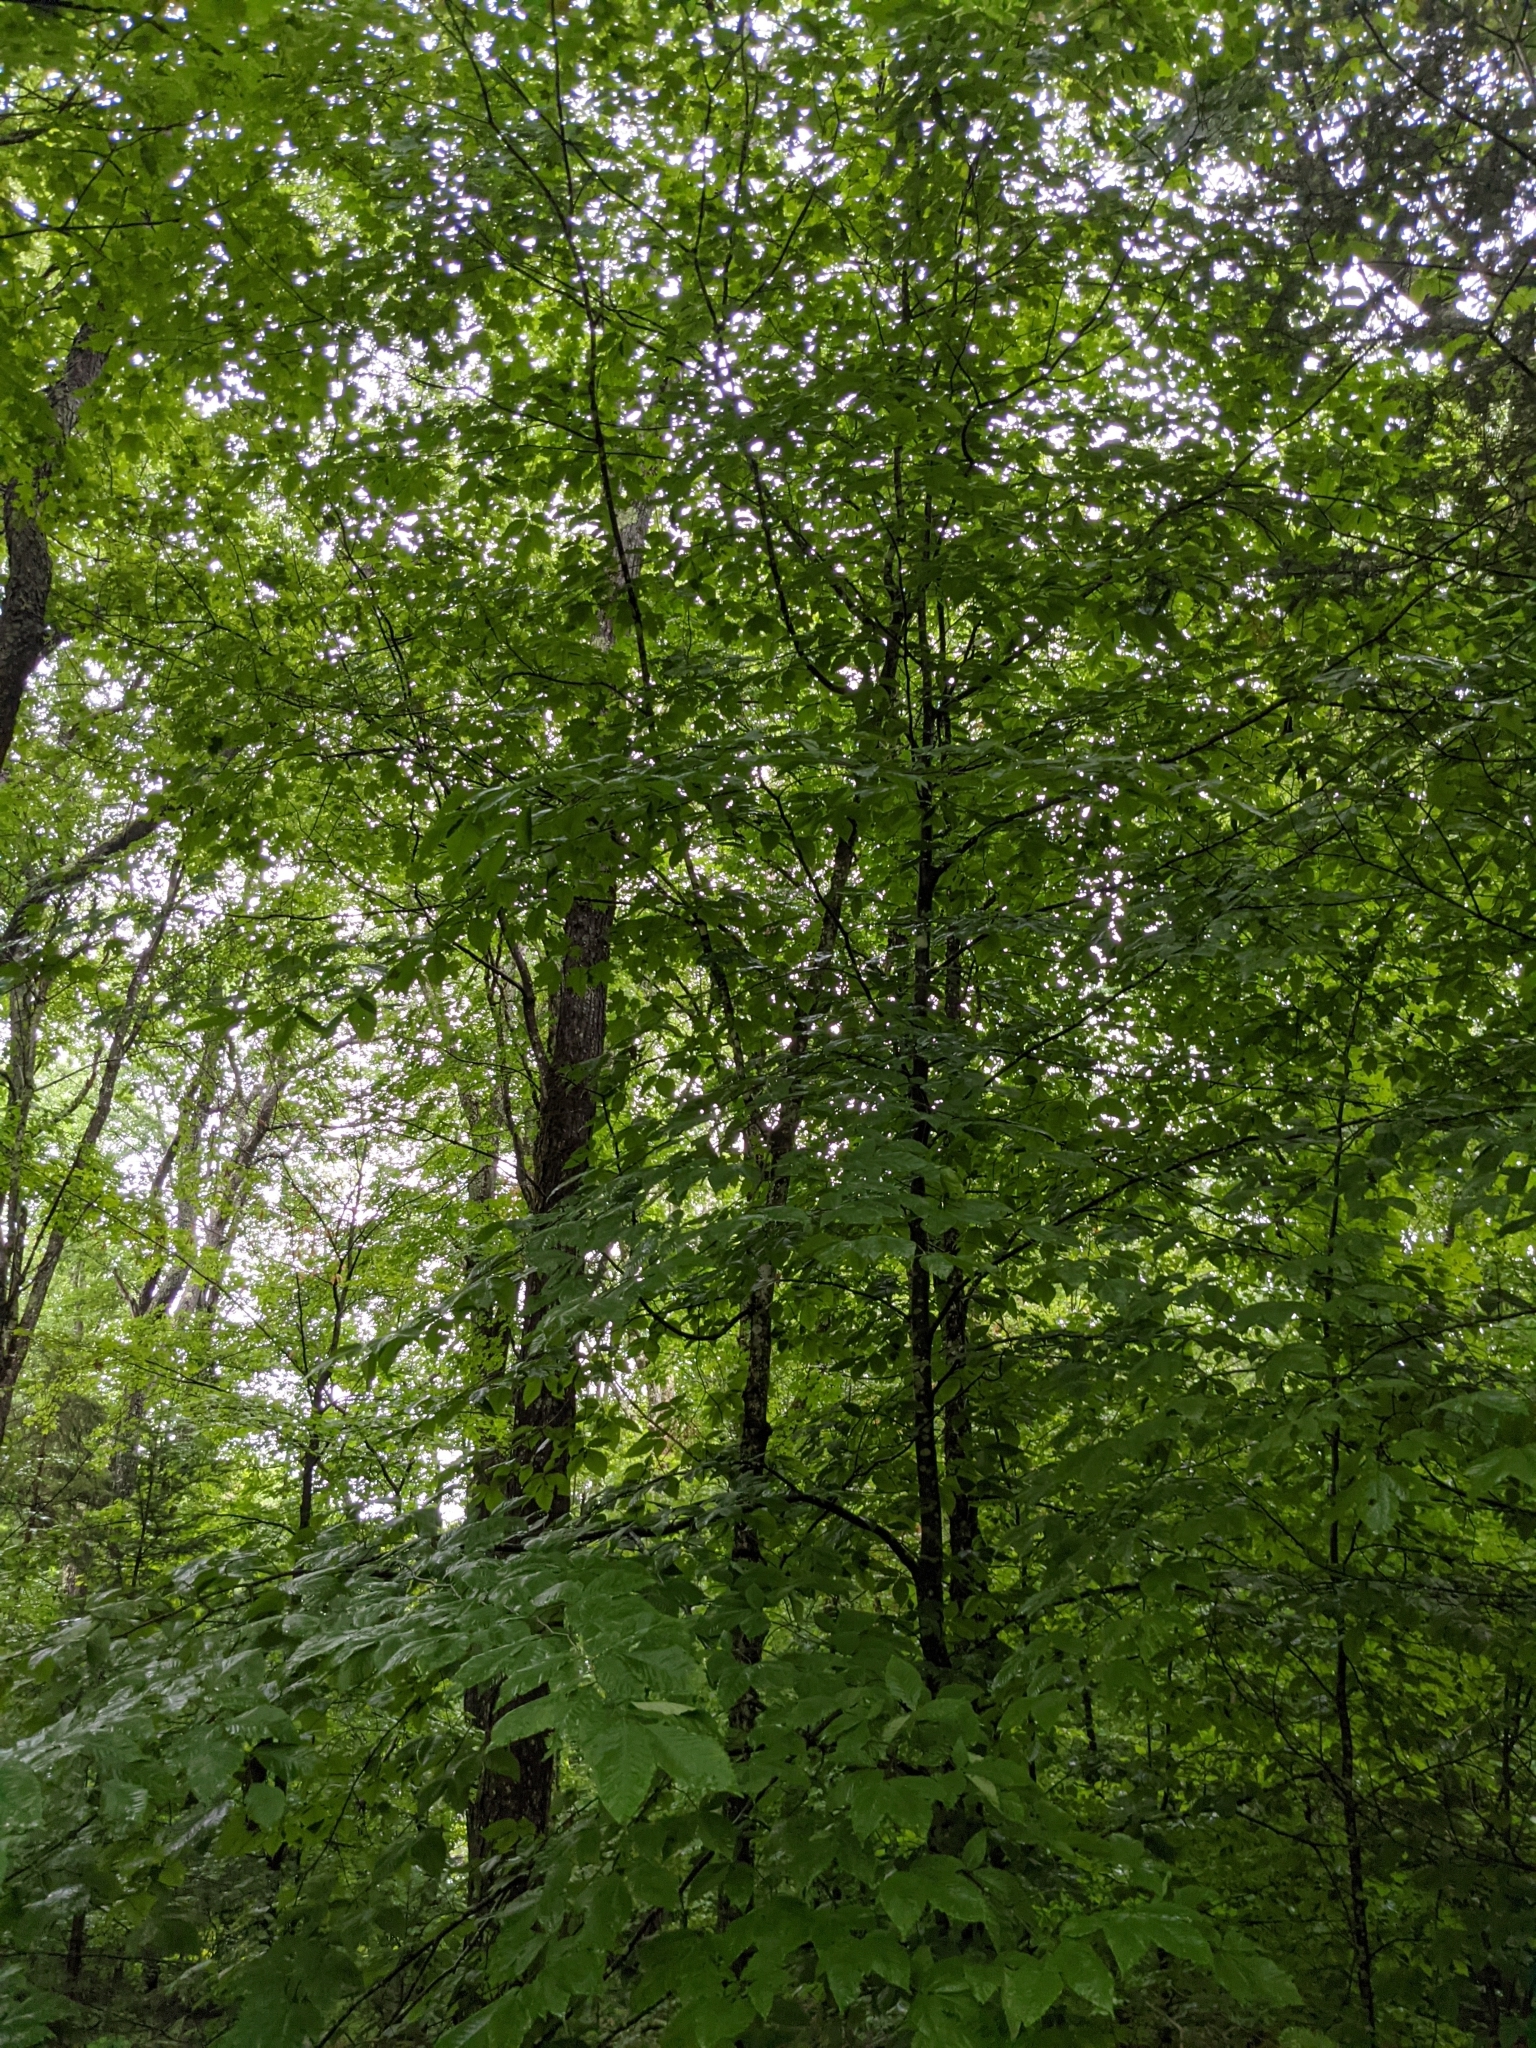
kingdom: Plantae
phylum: Tracheophyta
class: Magnoliopsida
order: Fagales
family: Fagaceae
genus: Fagus
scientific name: Fagus grandifolia
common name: American beech
